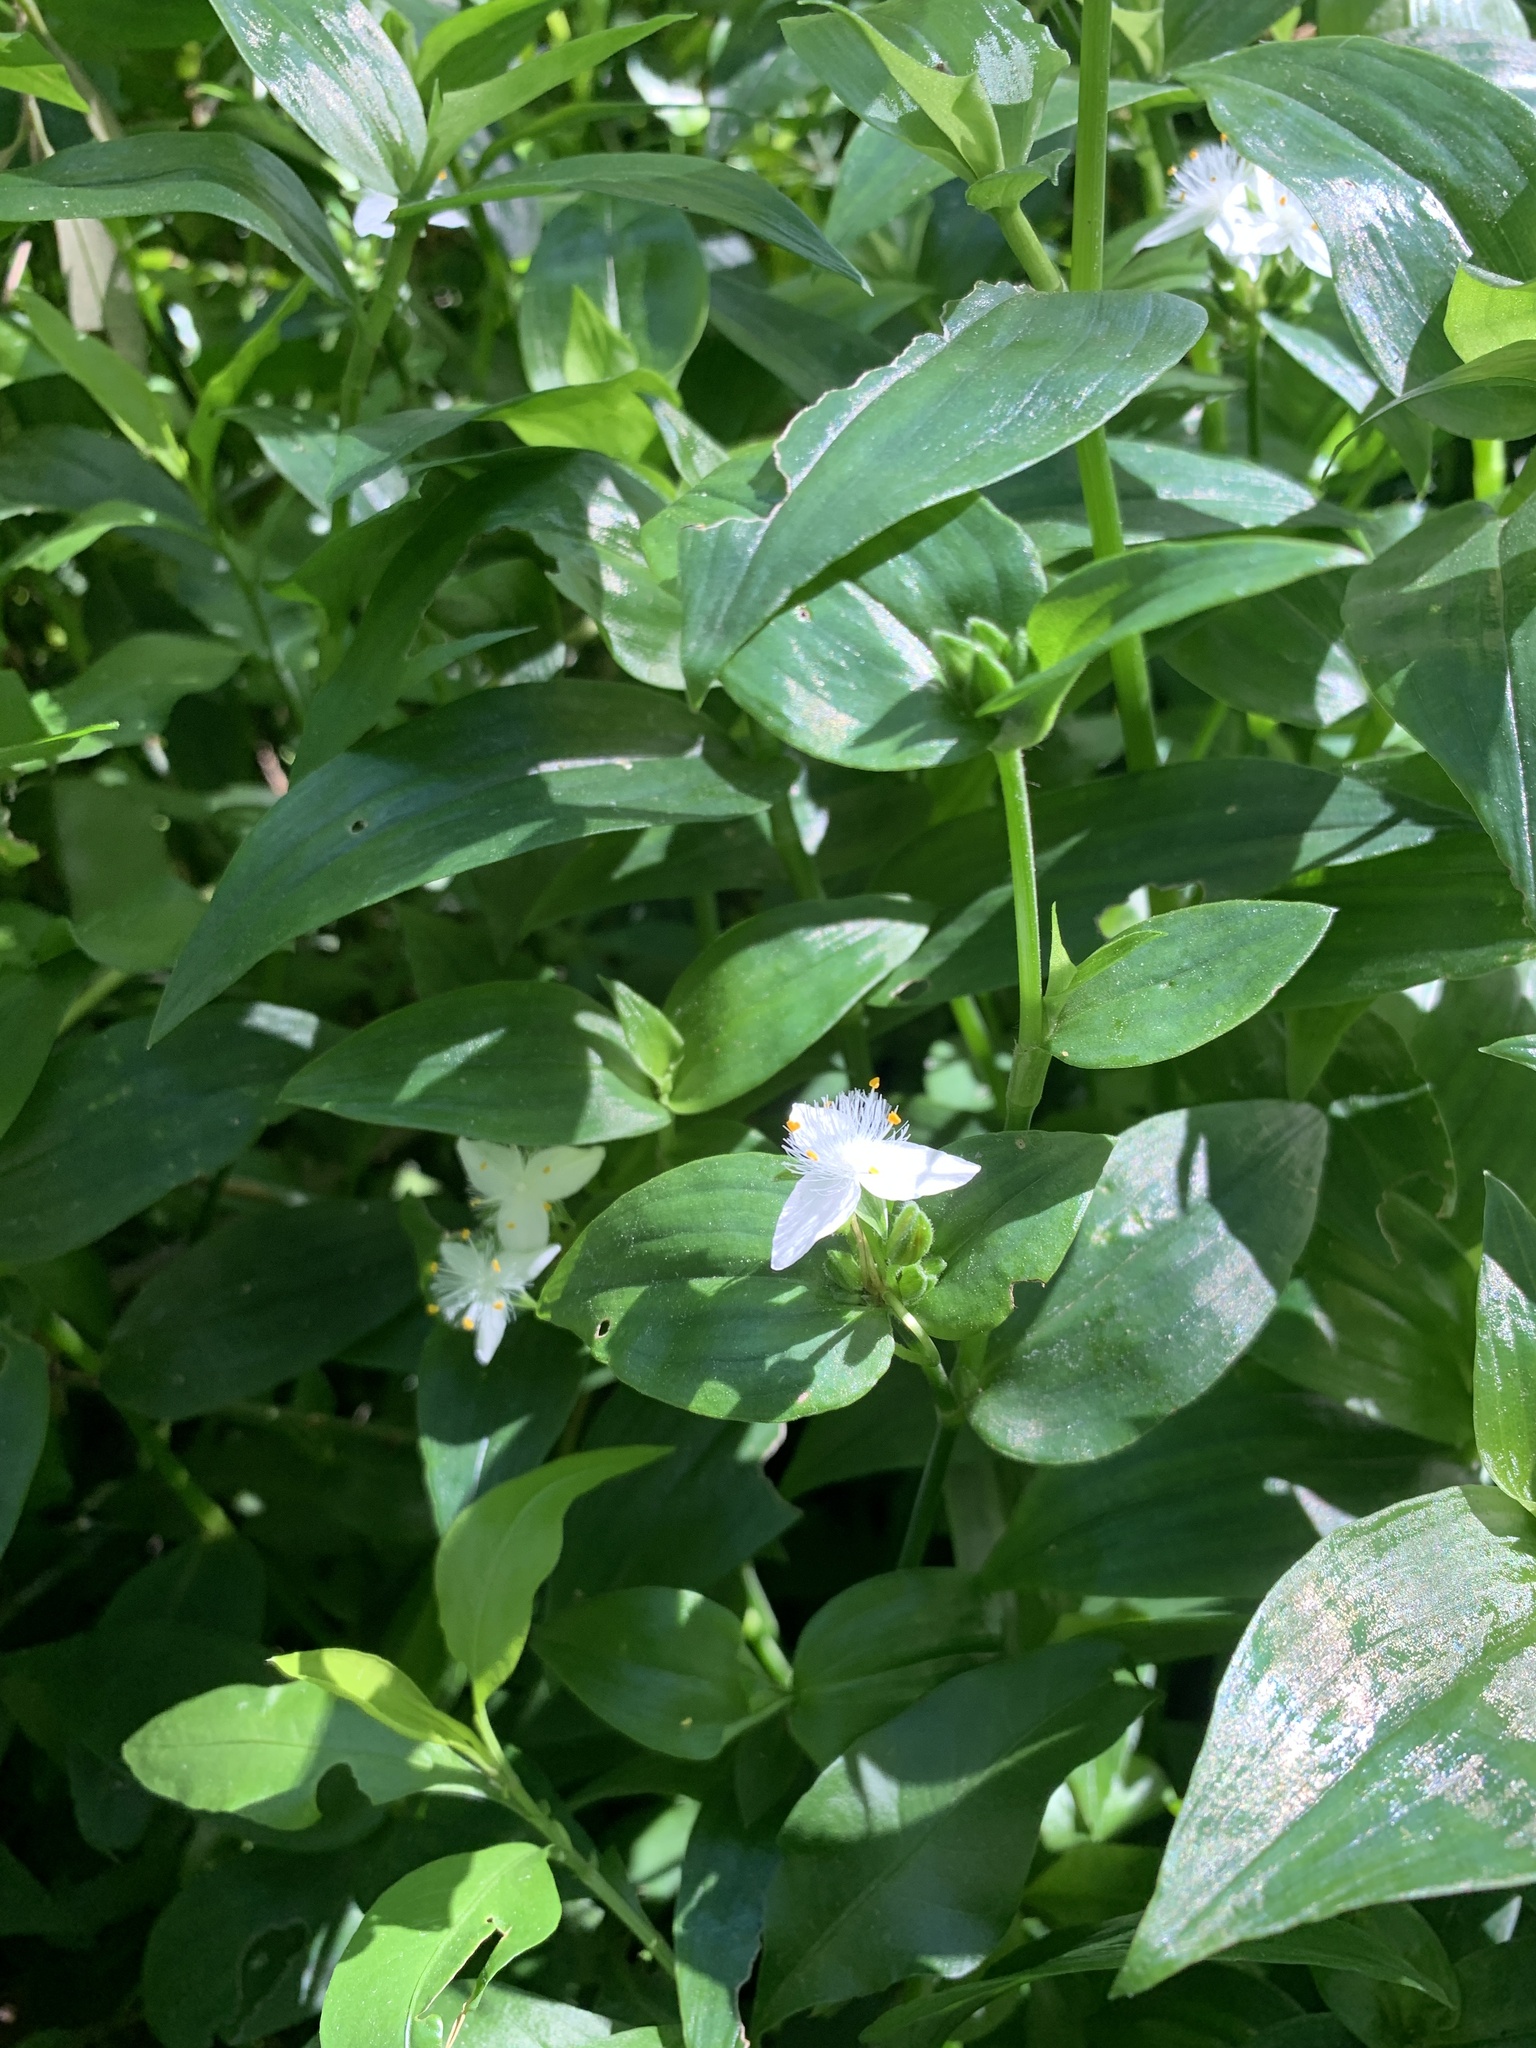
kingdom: Plantae
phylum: Tracheophyta
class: Liliopsida
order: Commelinales
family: Commelinaceae
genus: Tradescantia
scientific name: Tradescantia fluminensis
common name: Wandering-jew
